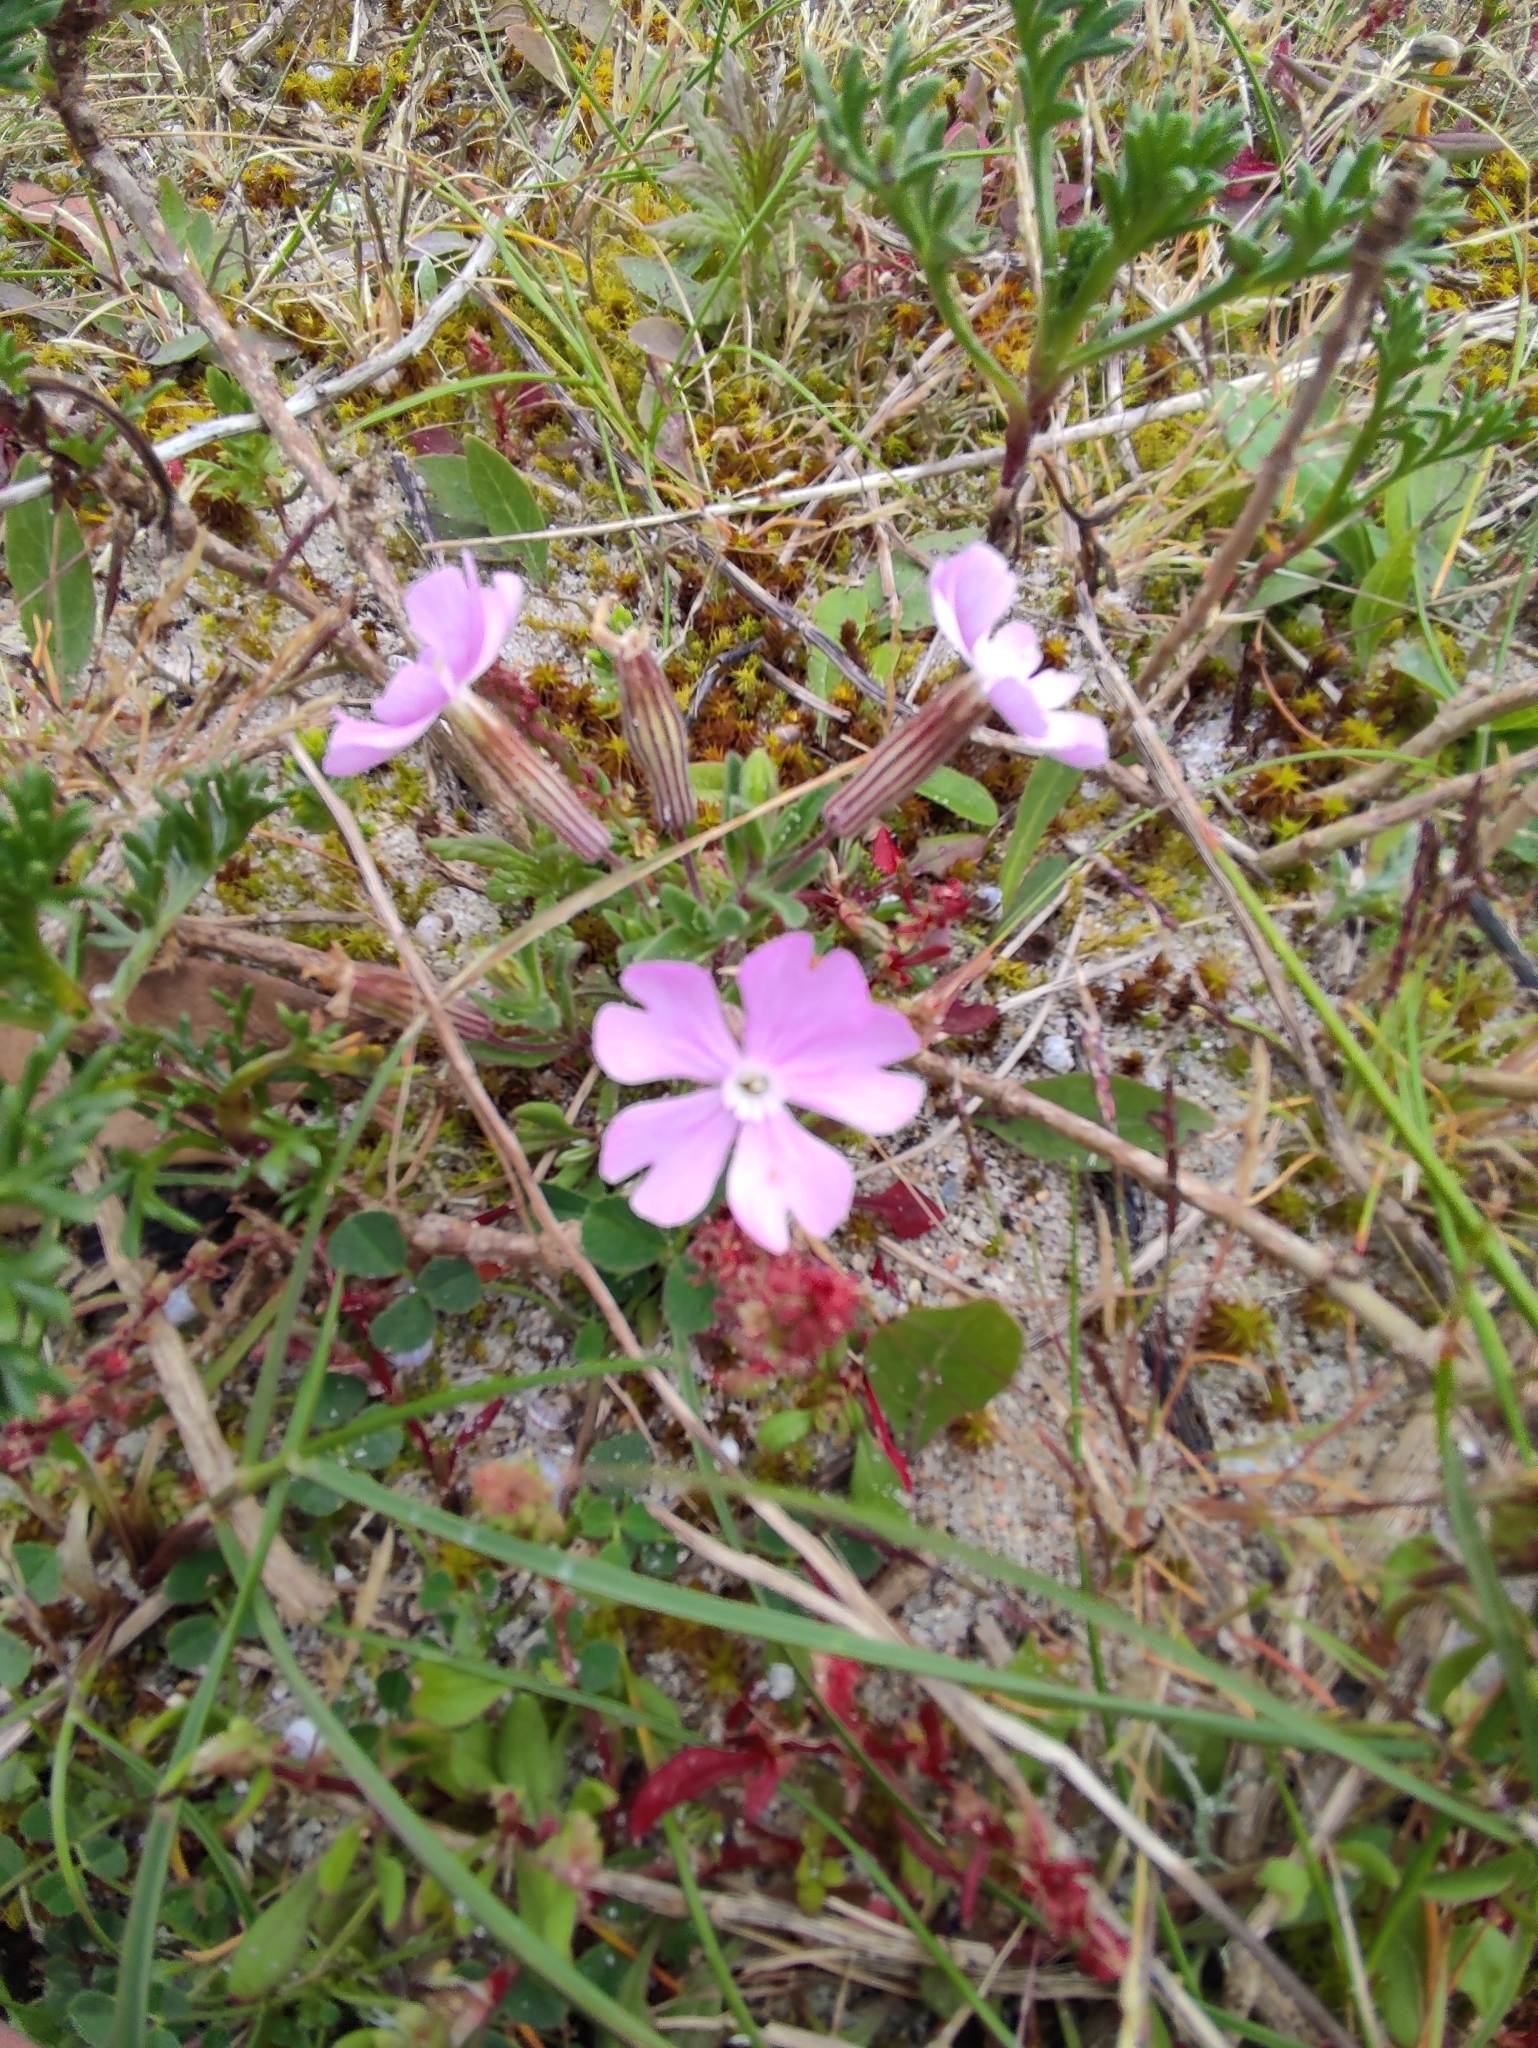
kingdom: Plantae
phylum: Tracheophyta
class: Magnoliopsida
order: Caryophyllales
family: Caryophyllaceae
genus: Silene
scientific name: Silene littorea
